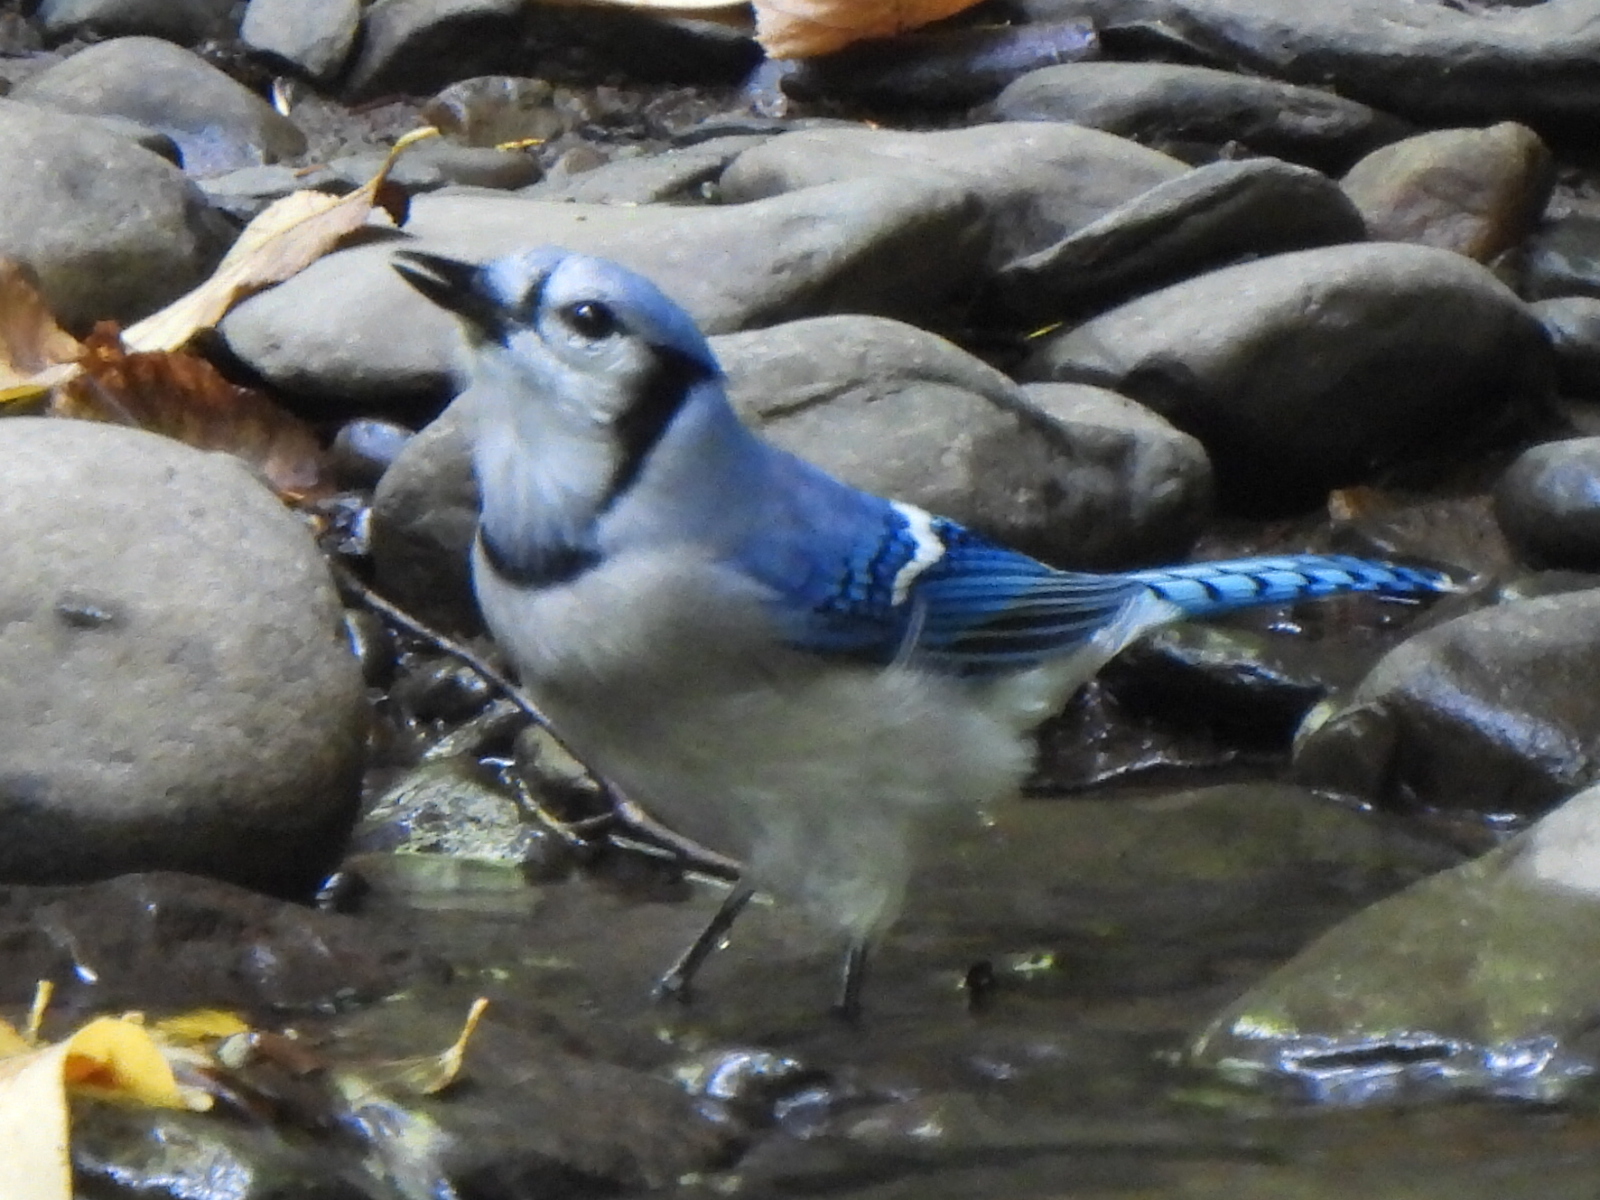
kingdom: Animalia
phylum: Chordata
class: Aves
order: Passeriformes
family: Corvidae
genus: Cyanocitta
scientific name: Cyanocitta cristata
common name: Blue jay
